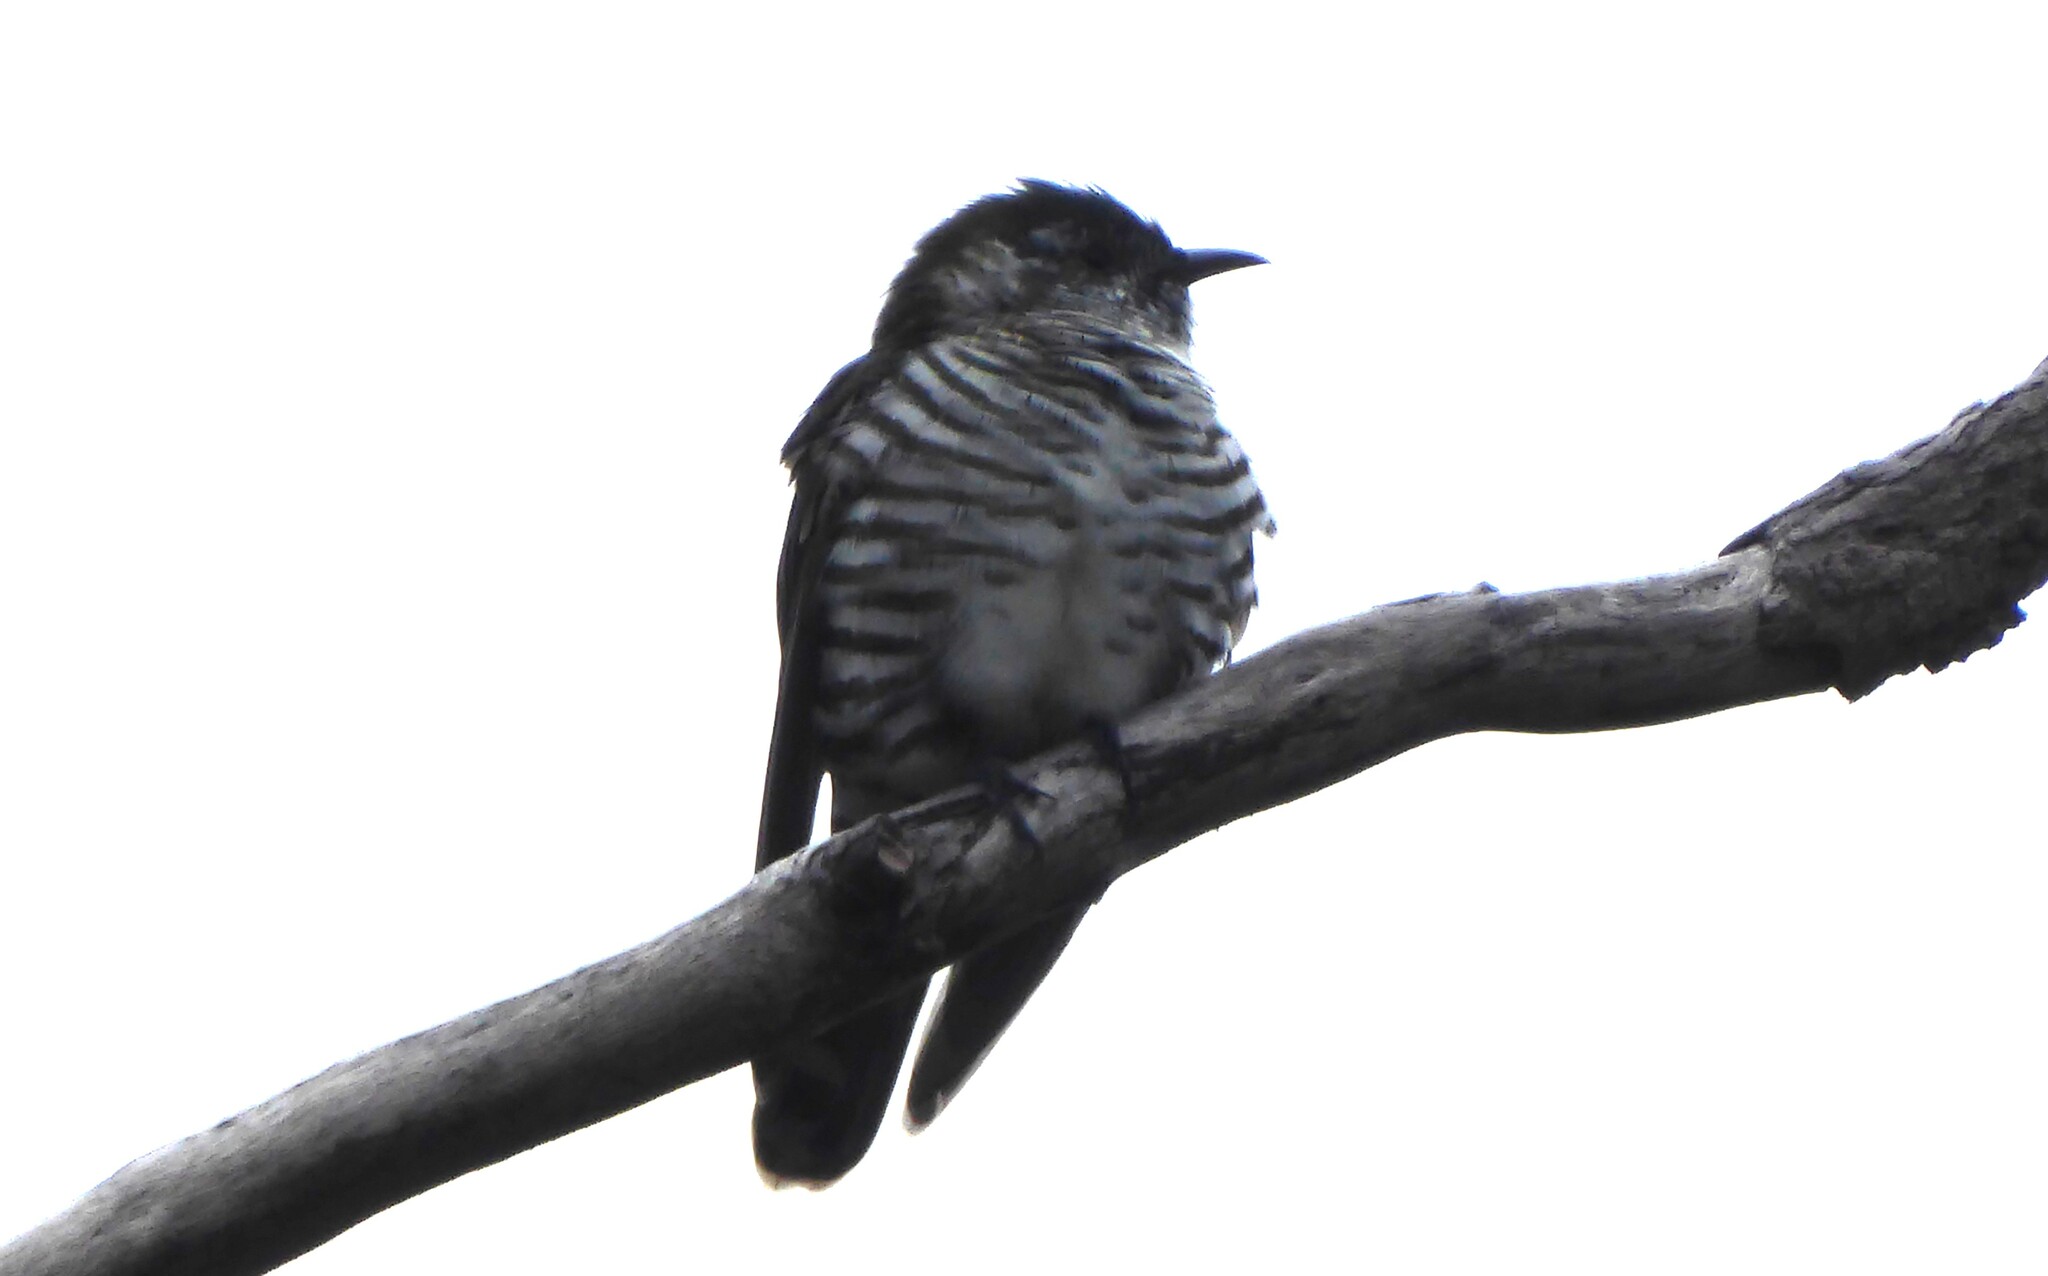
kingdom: Animalia
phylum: Chordata
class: Aves
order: Cuculiformes
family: Cuculidae
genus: Chrysococcyx
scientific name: Chrysococcyx lucidus
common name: Shining bronze cuckoo
